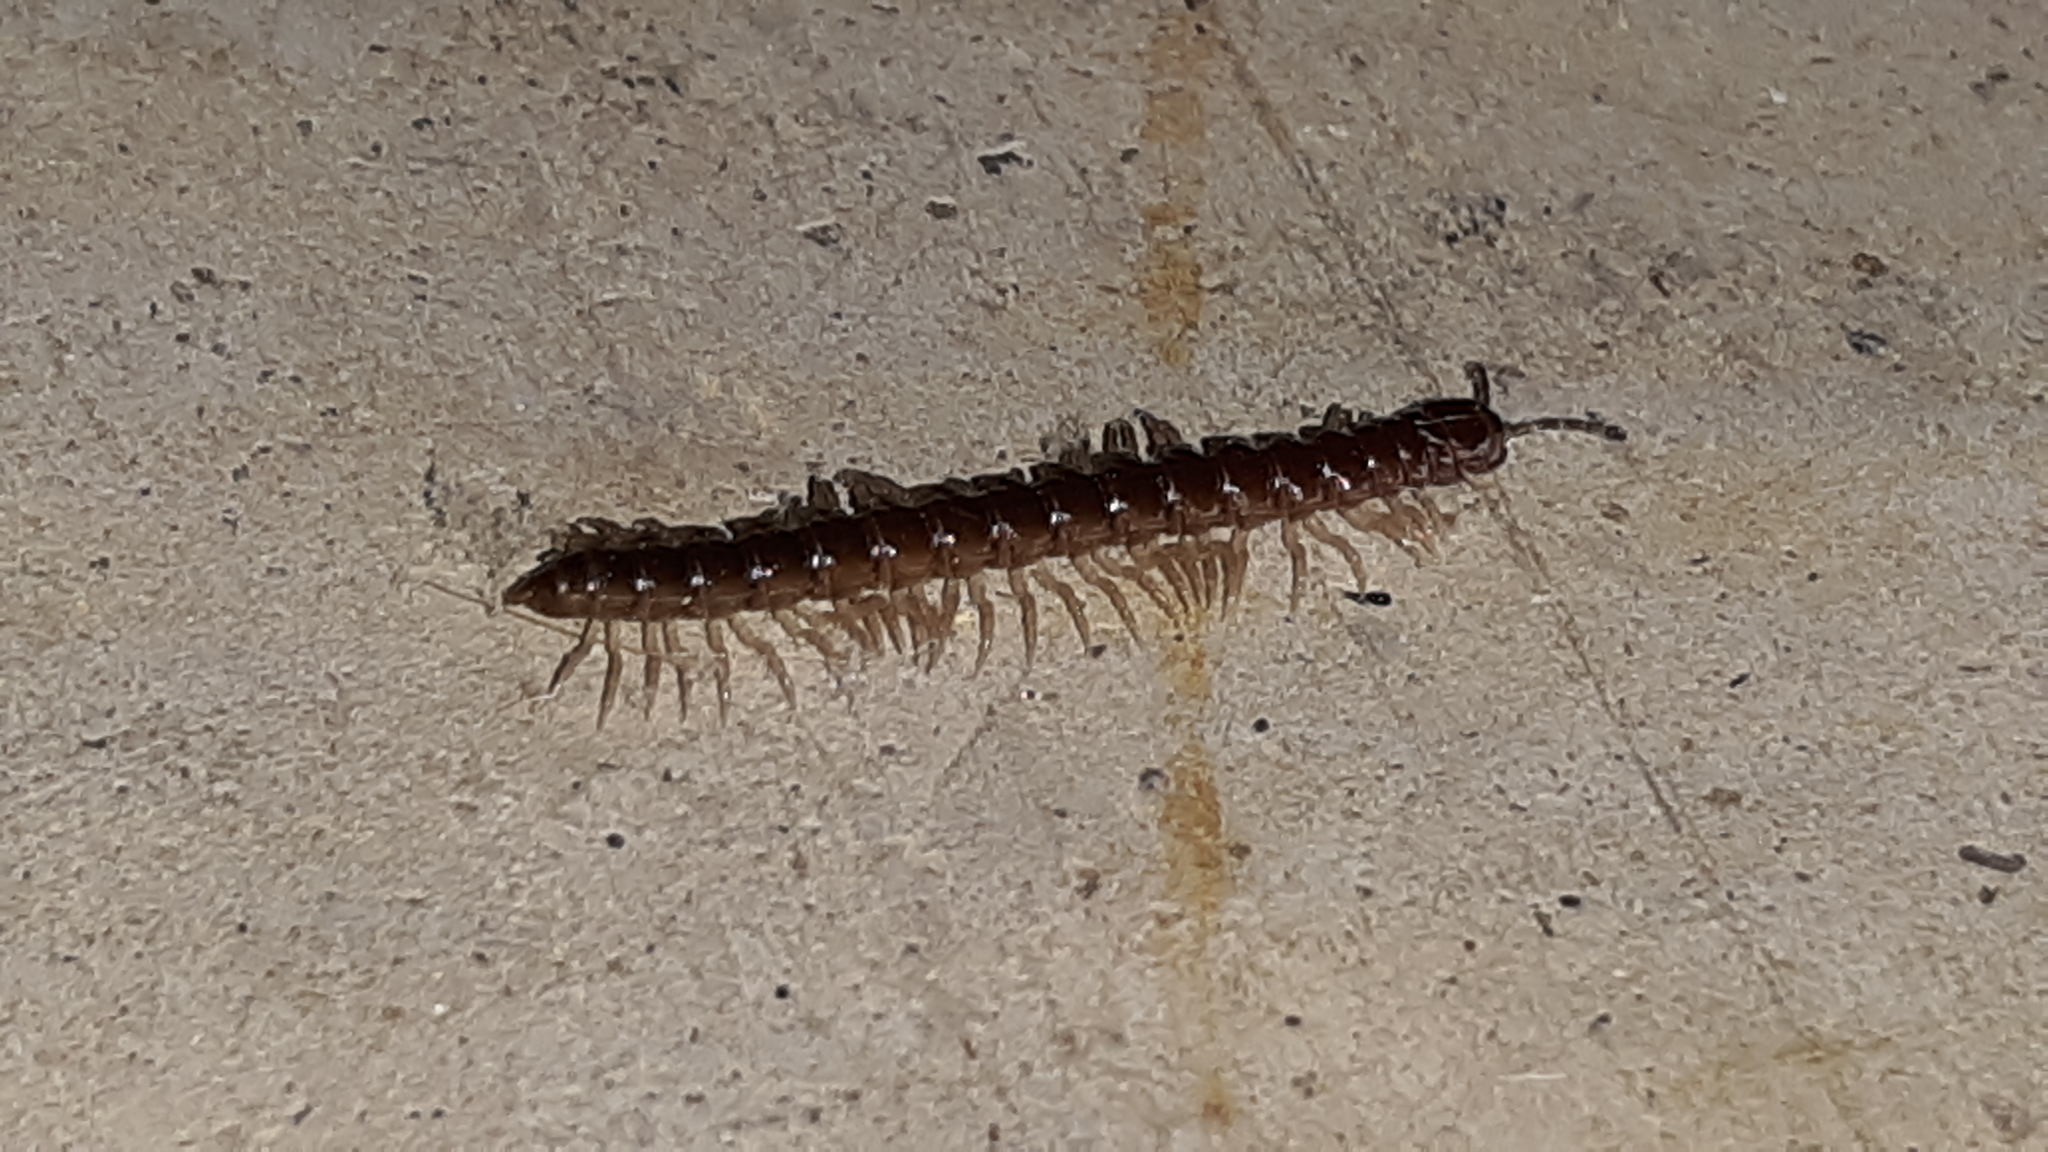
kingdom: Animalia
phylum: Arthropoda
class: Diplopoda
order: Polydesmida
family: Paradoxosomatidae
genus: Oxidus
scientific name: Oxidus gracilis
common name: Greenhouse millipede
